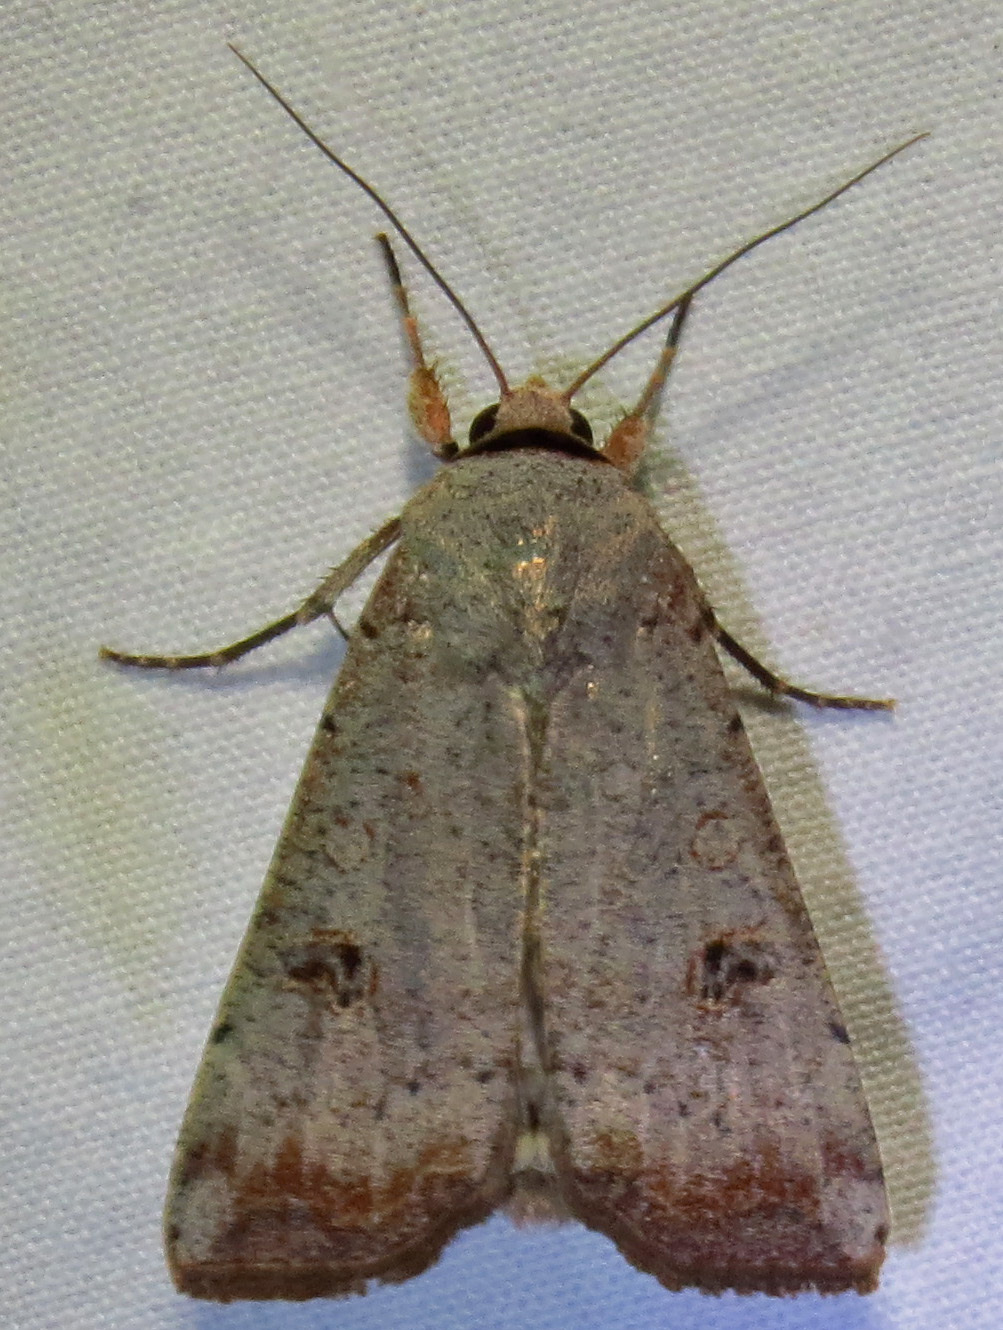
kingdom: Animalia
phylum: Arthropoda
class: Insecta
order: Lepidoptera
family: Noctuidae
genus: Anicla
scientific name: Anicla infecta
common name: Green cutworm
